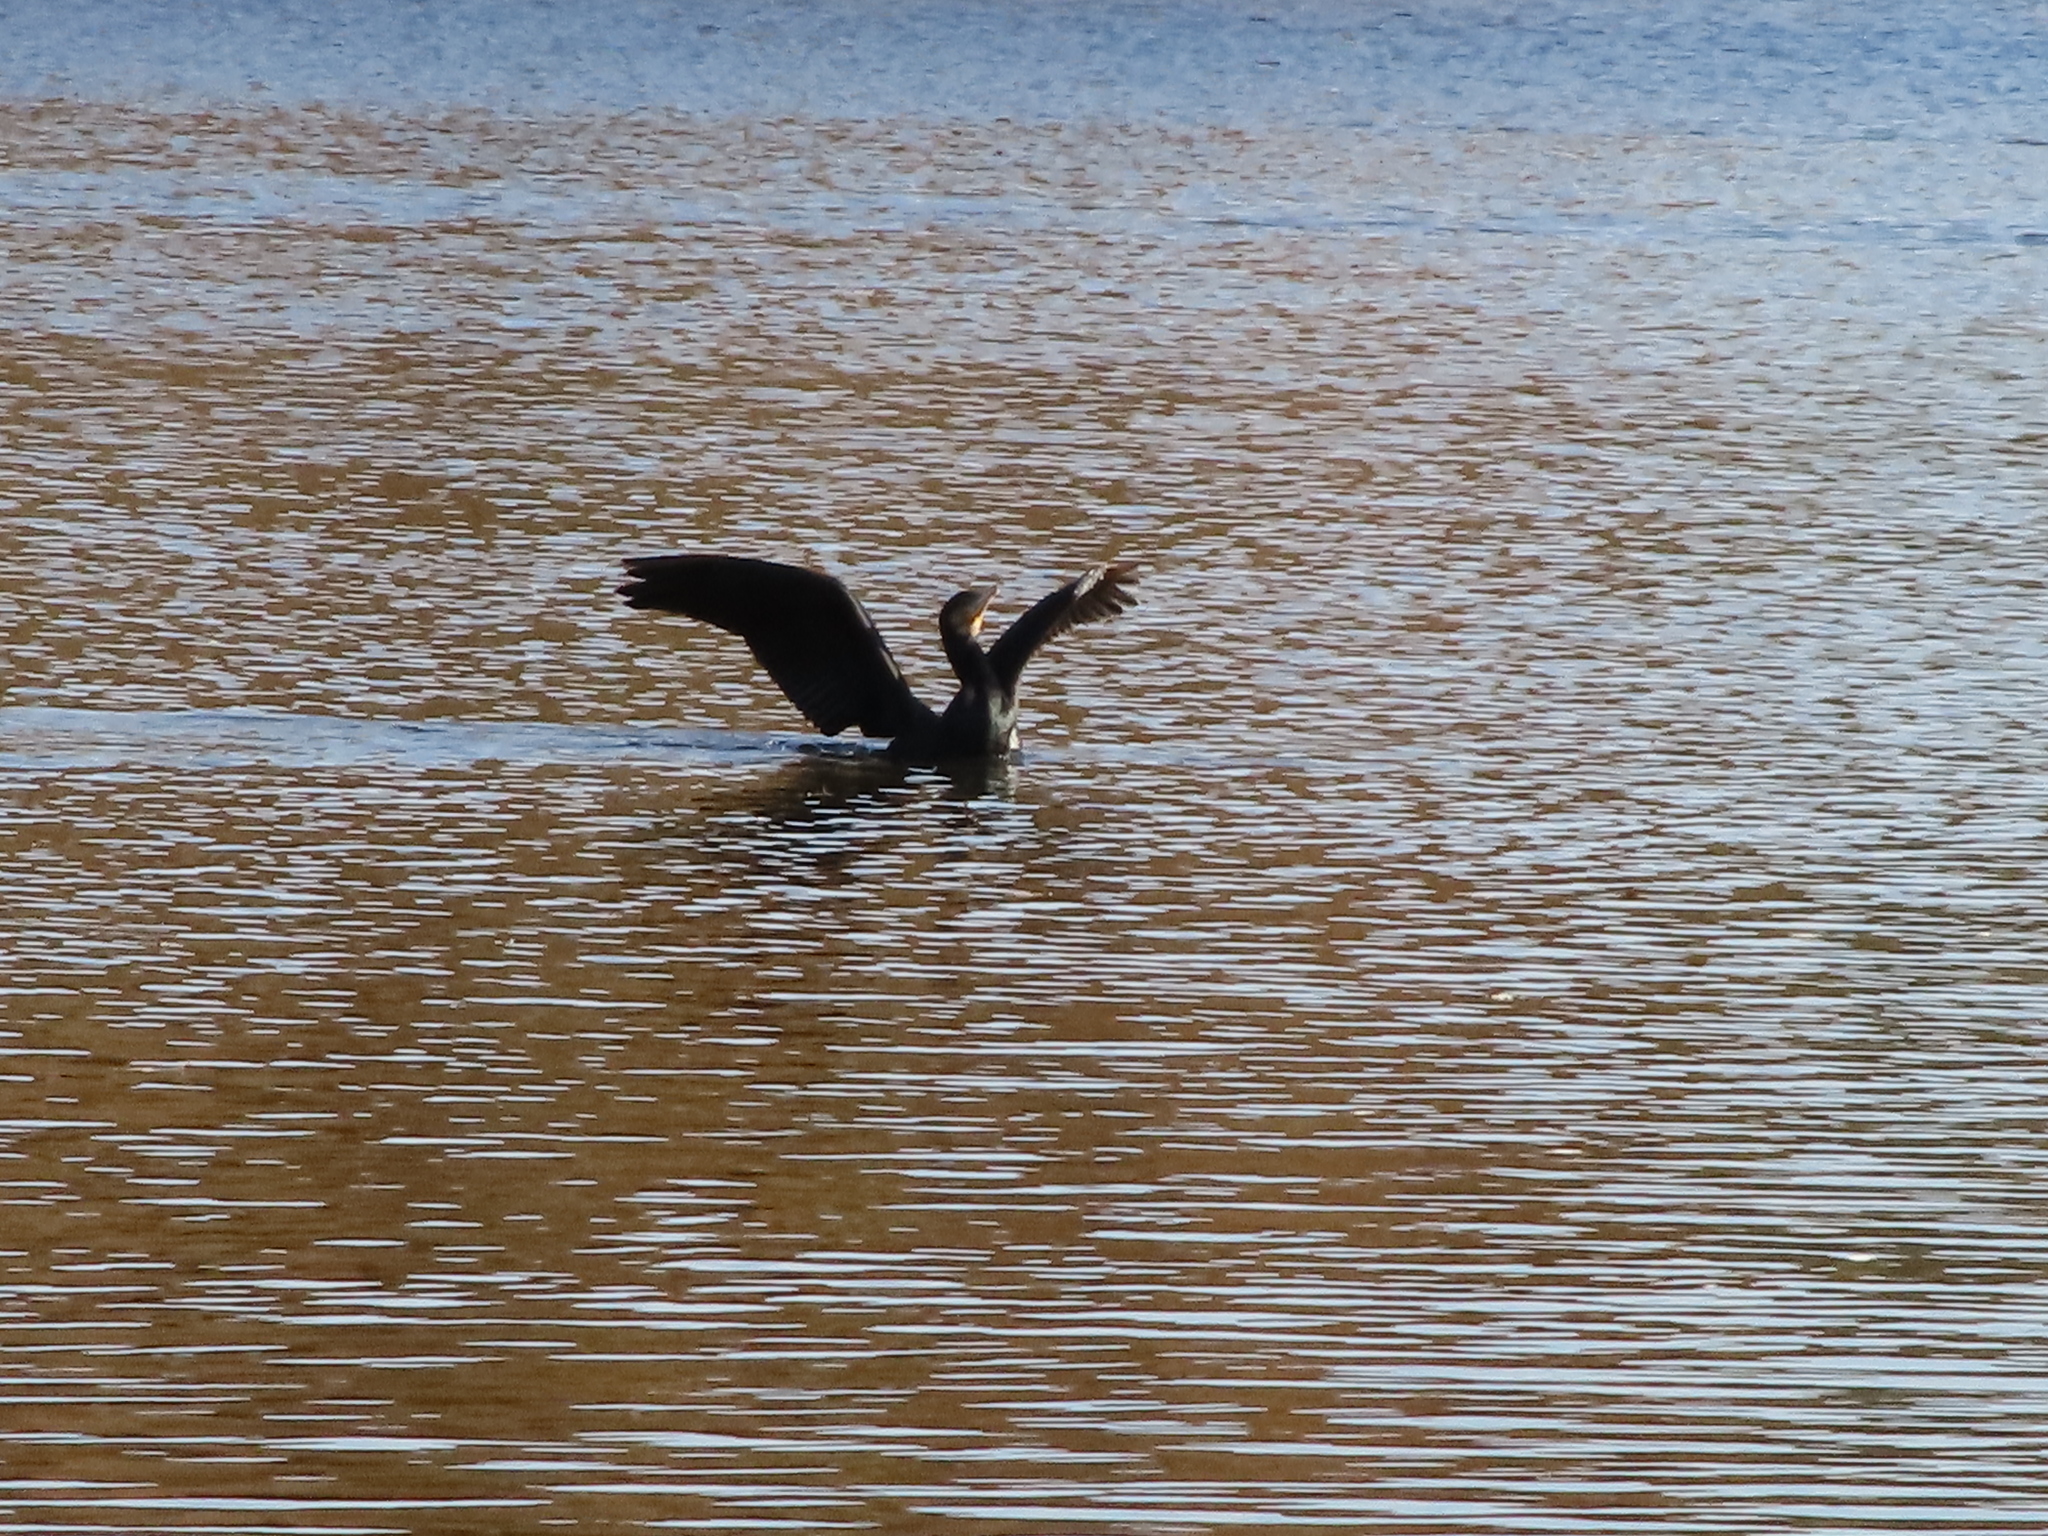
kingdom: Animalia
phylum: Chordata
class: Aves
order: Suliformes
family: Phalacrocoracidae
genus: Phalacrocorax
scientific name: Phalacrocorax carbo
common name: Great cormorant
